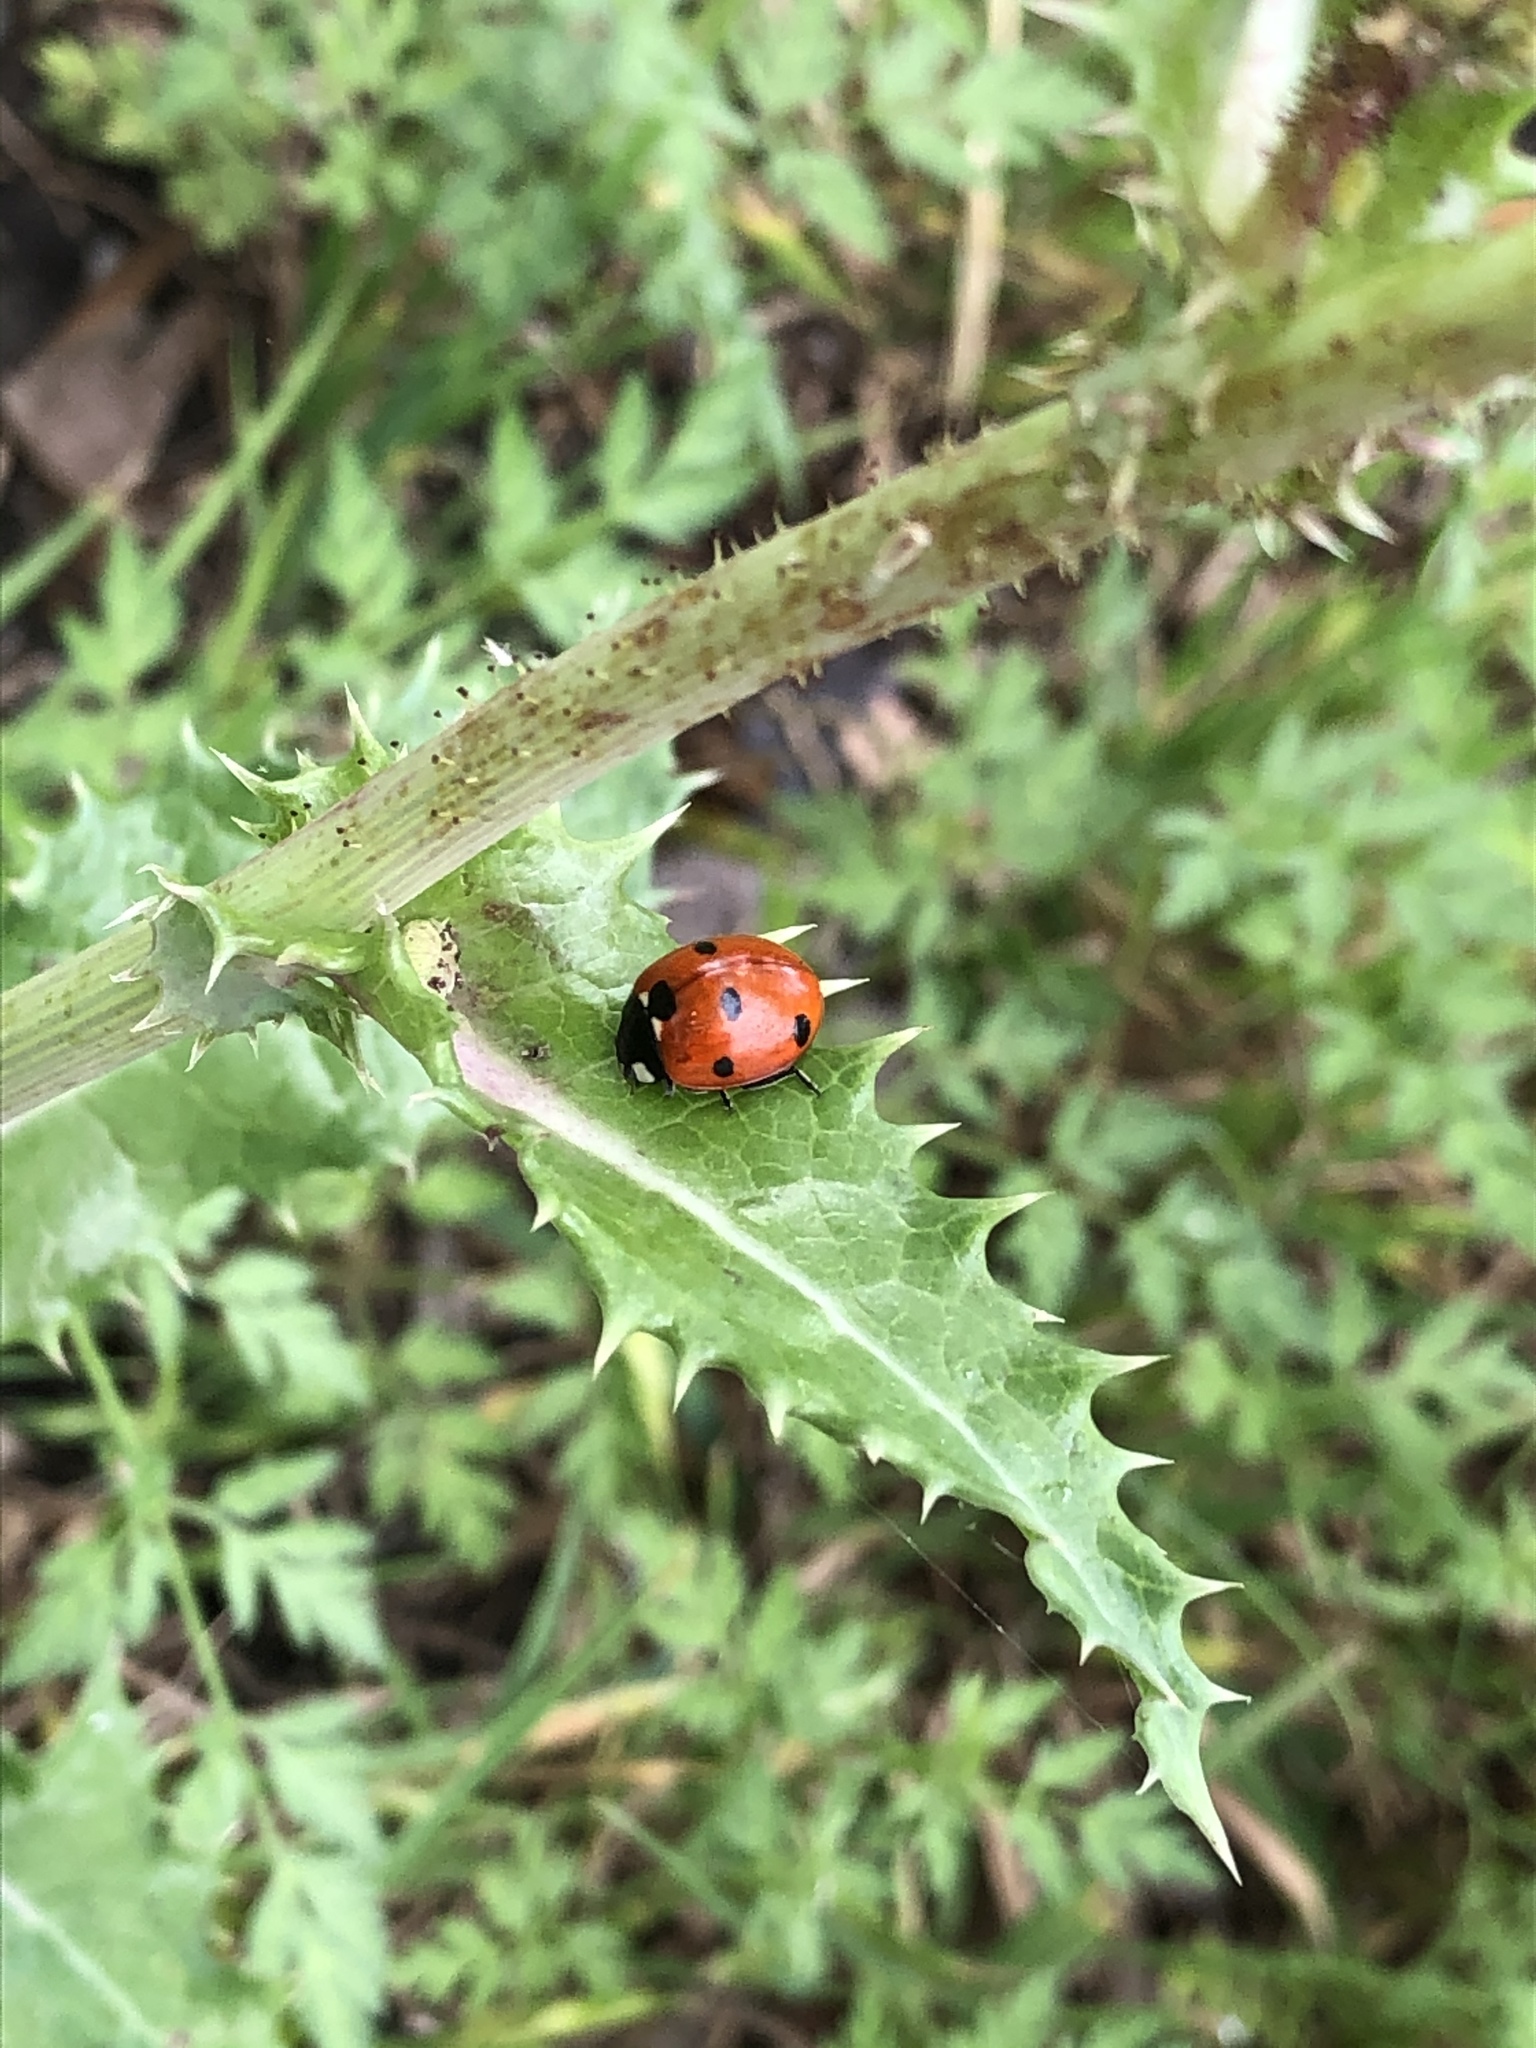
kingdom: Animalia
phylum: Arthropoda
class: Insecta
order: Coleoptera
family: Coccinellidae
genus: Coccinella
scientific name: Coccinella septempunctata
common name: Sevenspotted lady beetle
